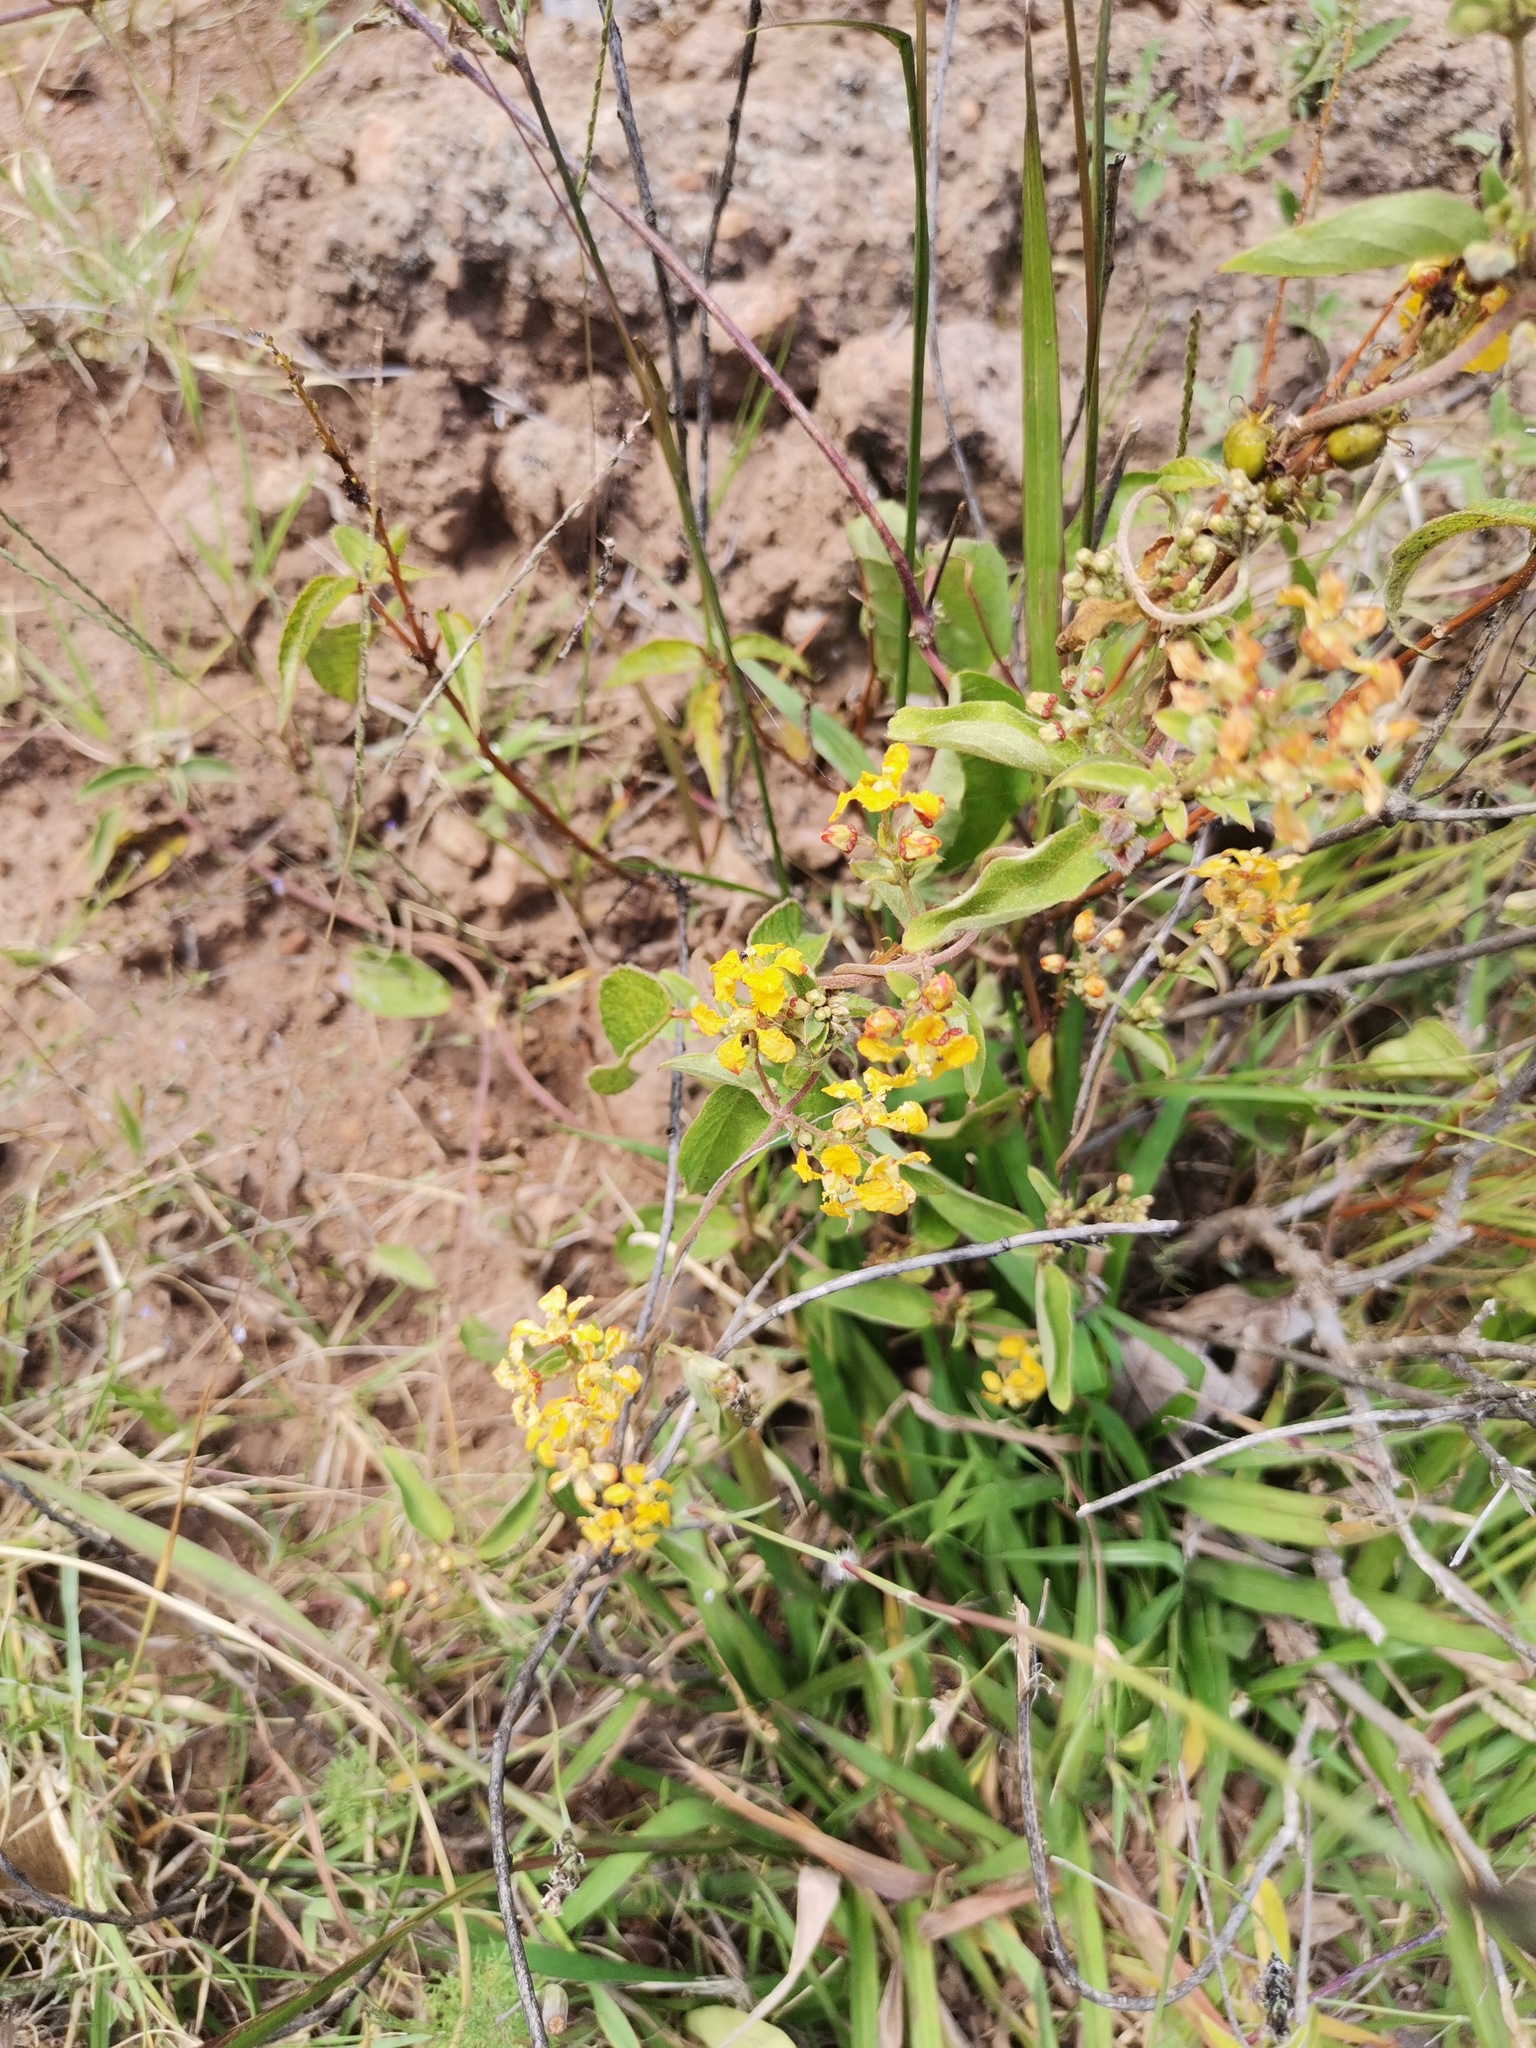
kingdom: Plantae
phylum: Tracheophyta
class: Magnoliopsida
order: Malpighiales
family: Malpighiaceae
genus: Gaudichaudia
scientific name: Gaudichaudia cynanchoides
